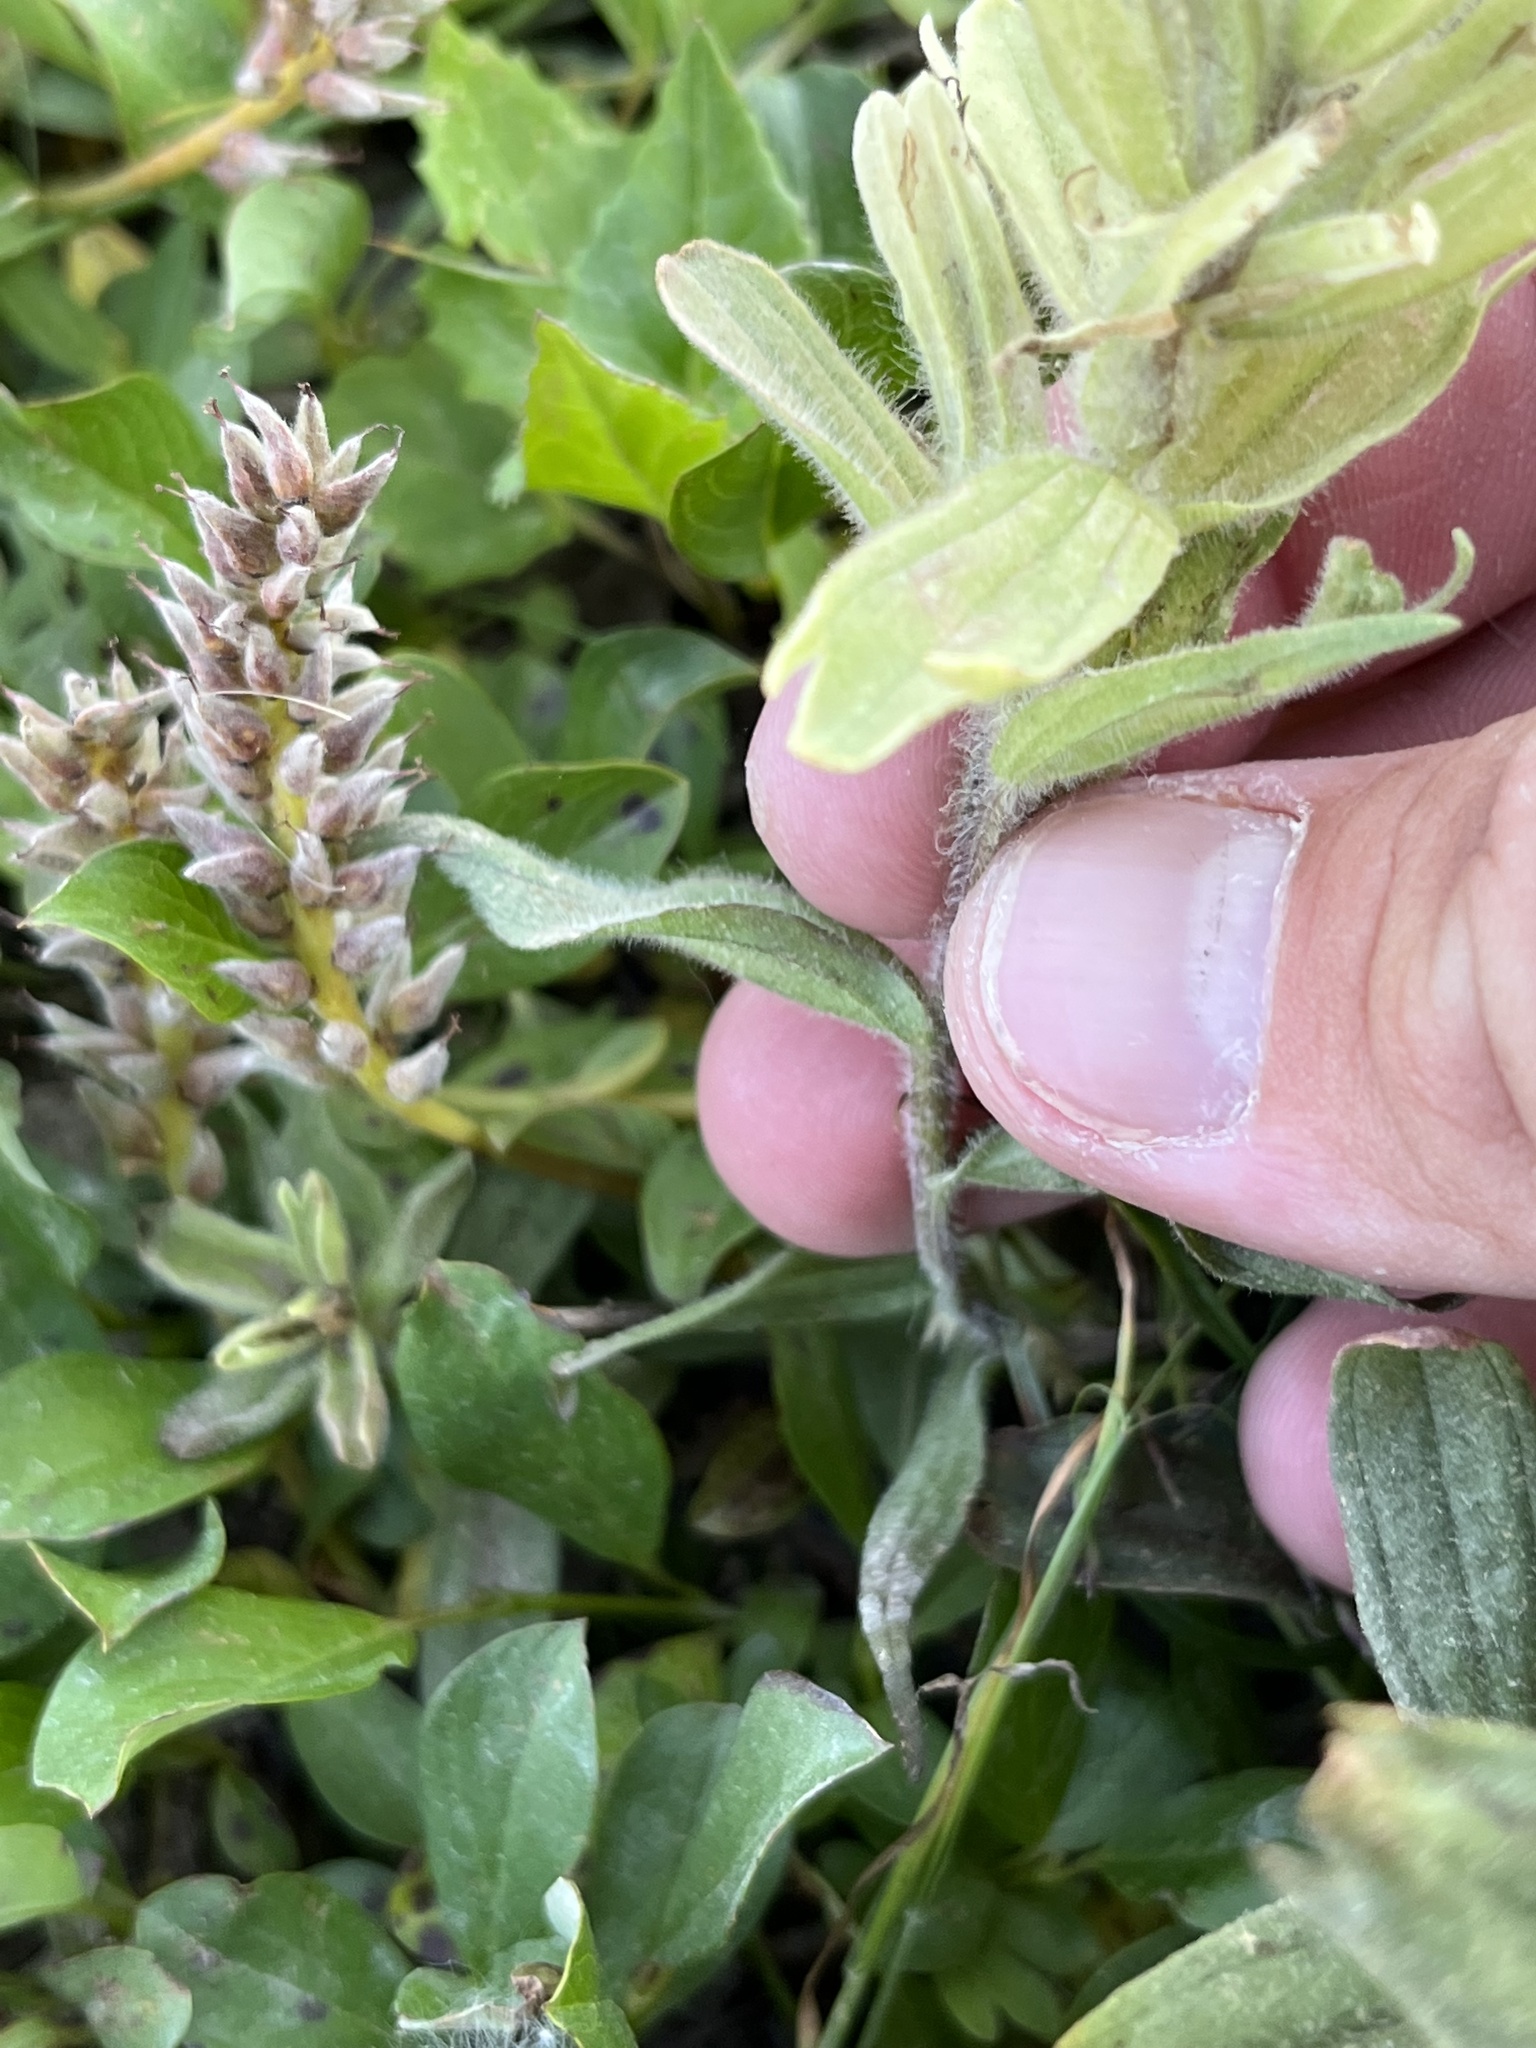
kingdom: Plantae
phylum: Tracheophyta
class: Magnoliopsida
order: Lamiales
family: Orobanchaceae
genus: Castilleja
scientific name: Castilleja occidentalis
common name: Western paintbrush
